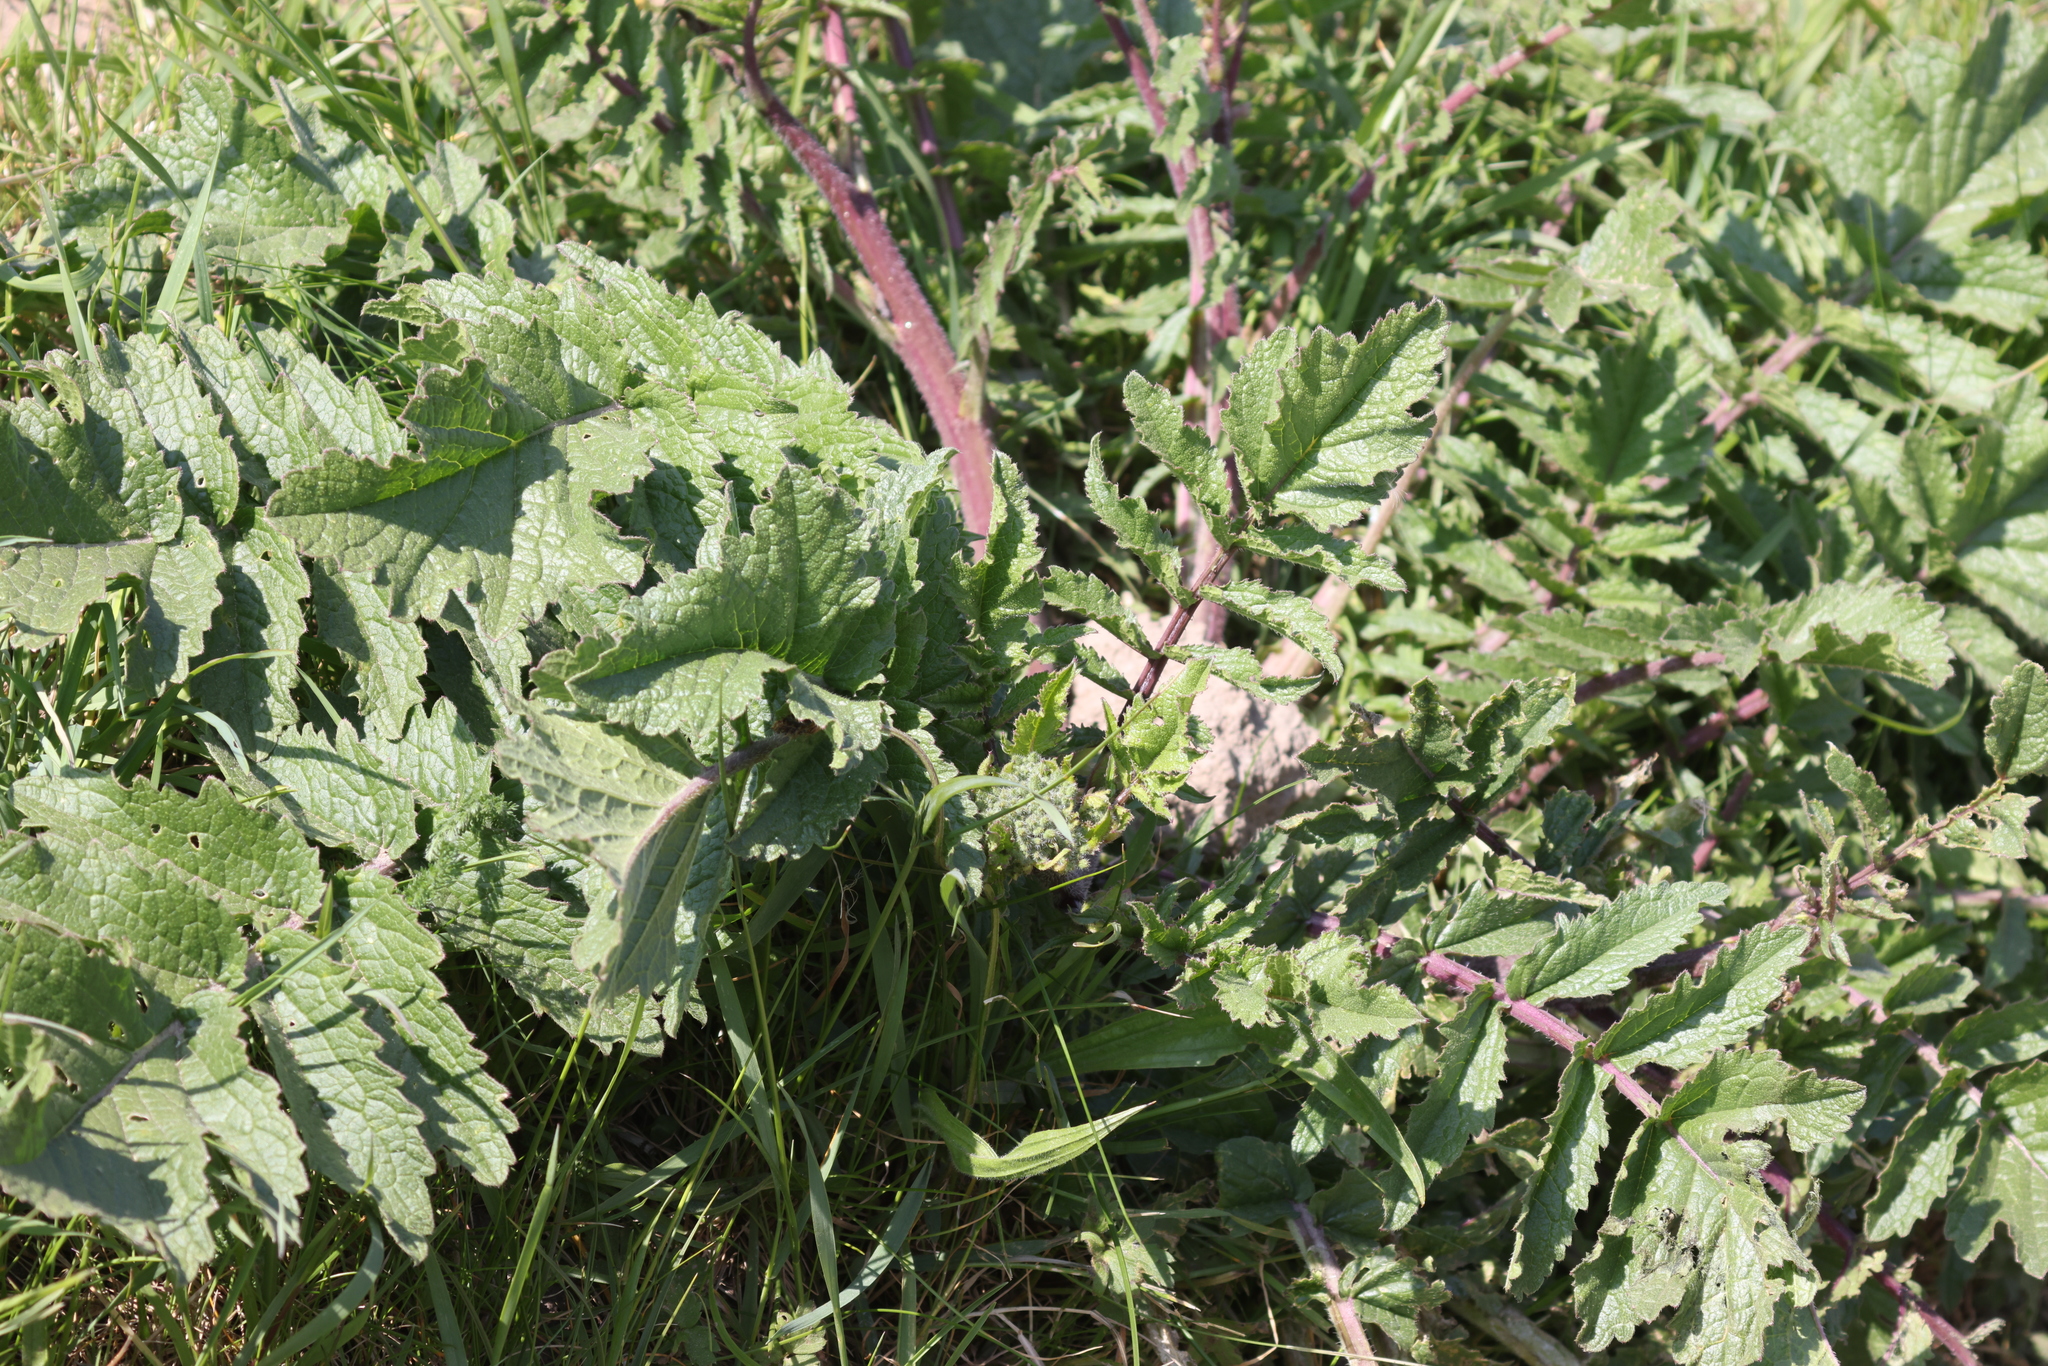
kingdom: Plantae
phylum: Tracheophyta
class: Magnoliopsida
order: Brassicales
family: Brassicaceae
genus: Raphanus
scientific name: Raphanus raphanistrum
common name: Wild radish
